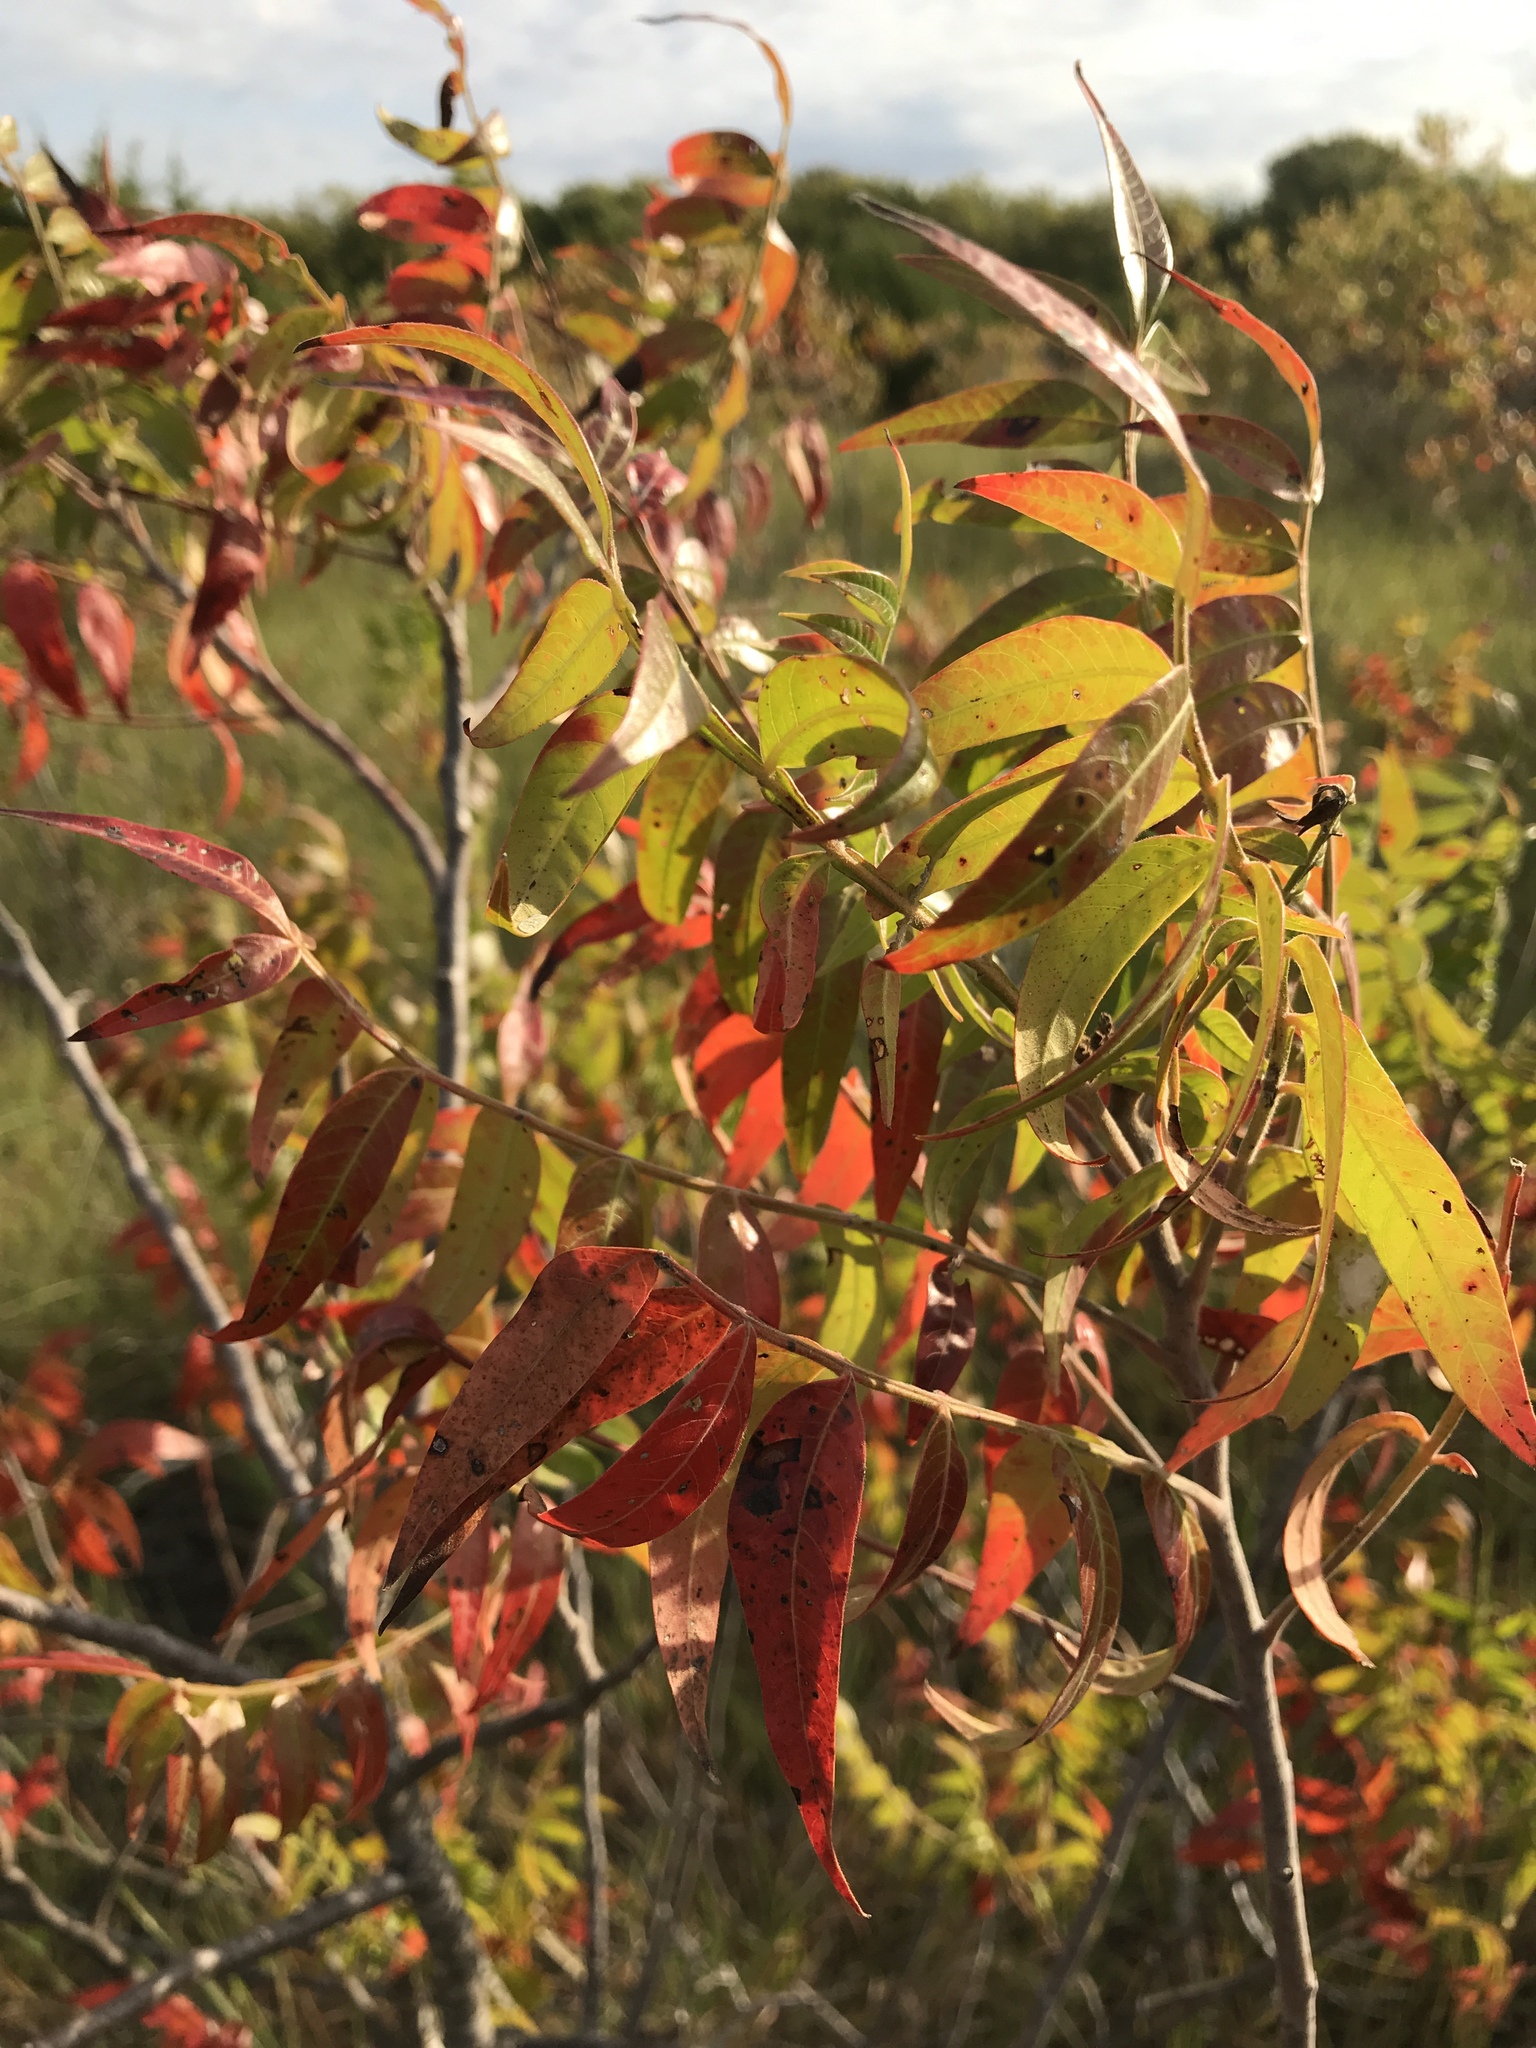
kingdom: Plantae
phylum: Tracheophyta
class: Magnoliopsida
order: Sapindales
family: Anacardiaceae
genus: Rhus
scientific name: Rhus lanceolata
